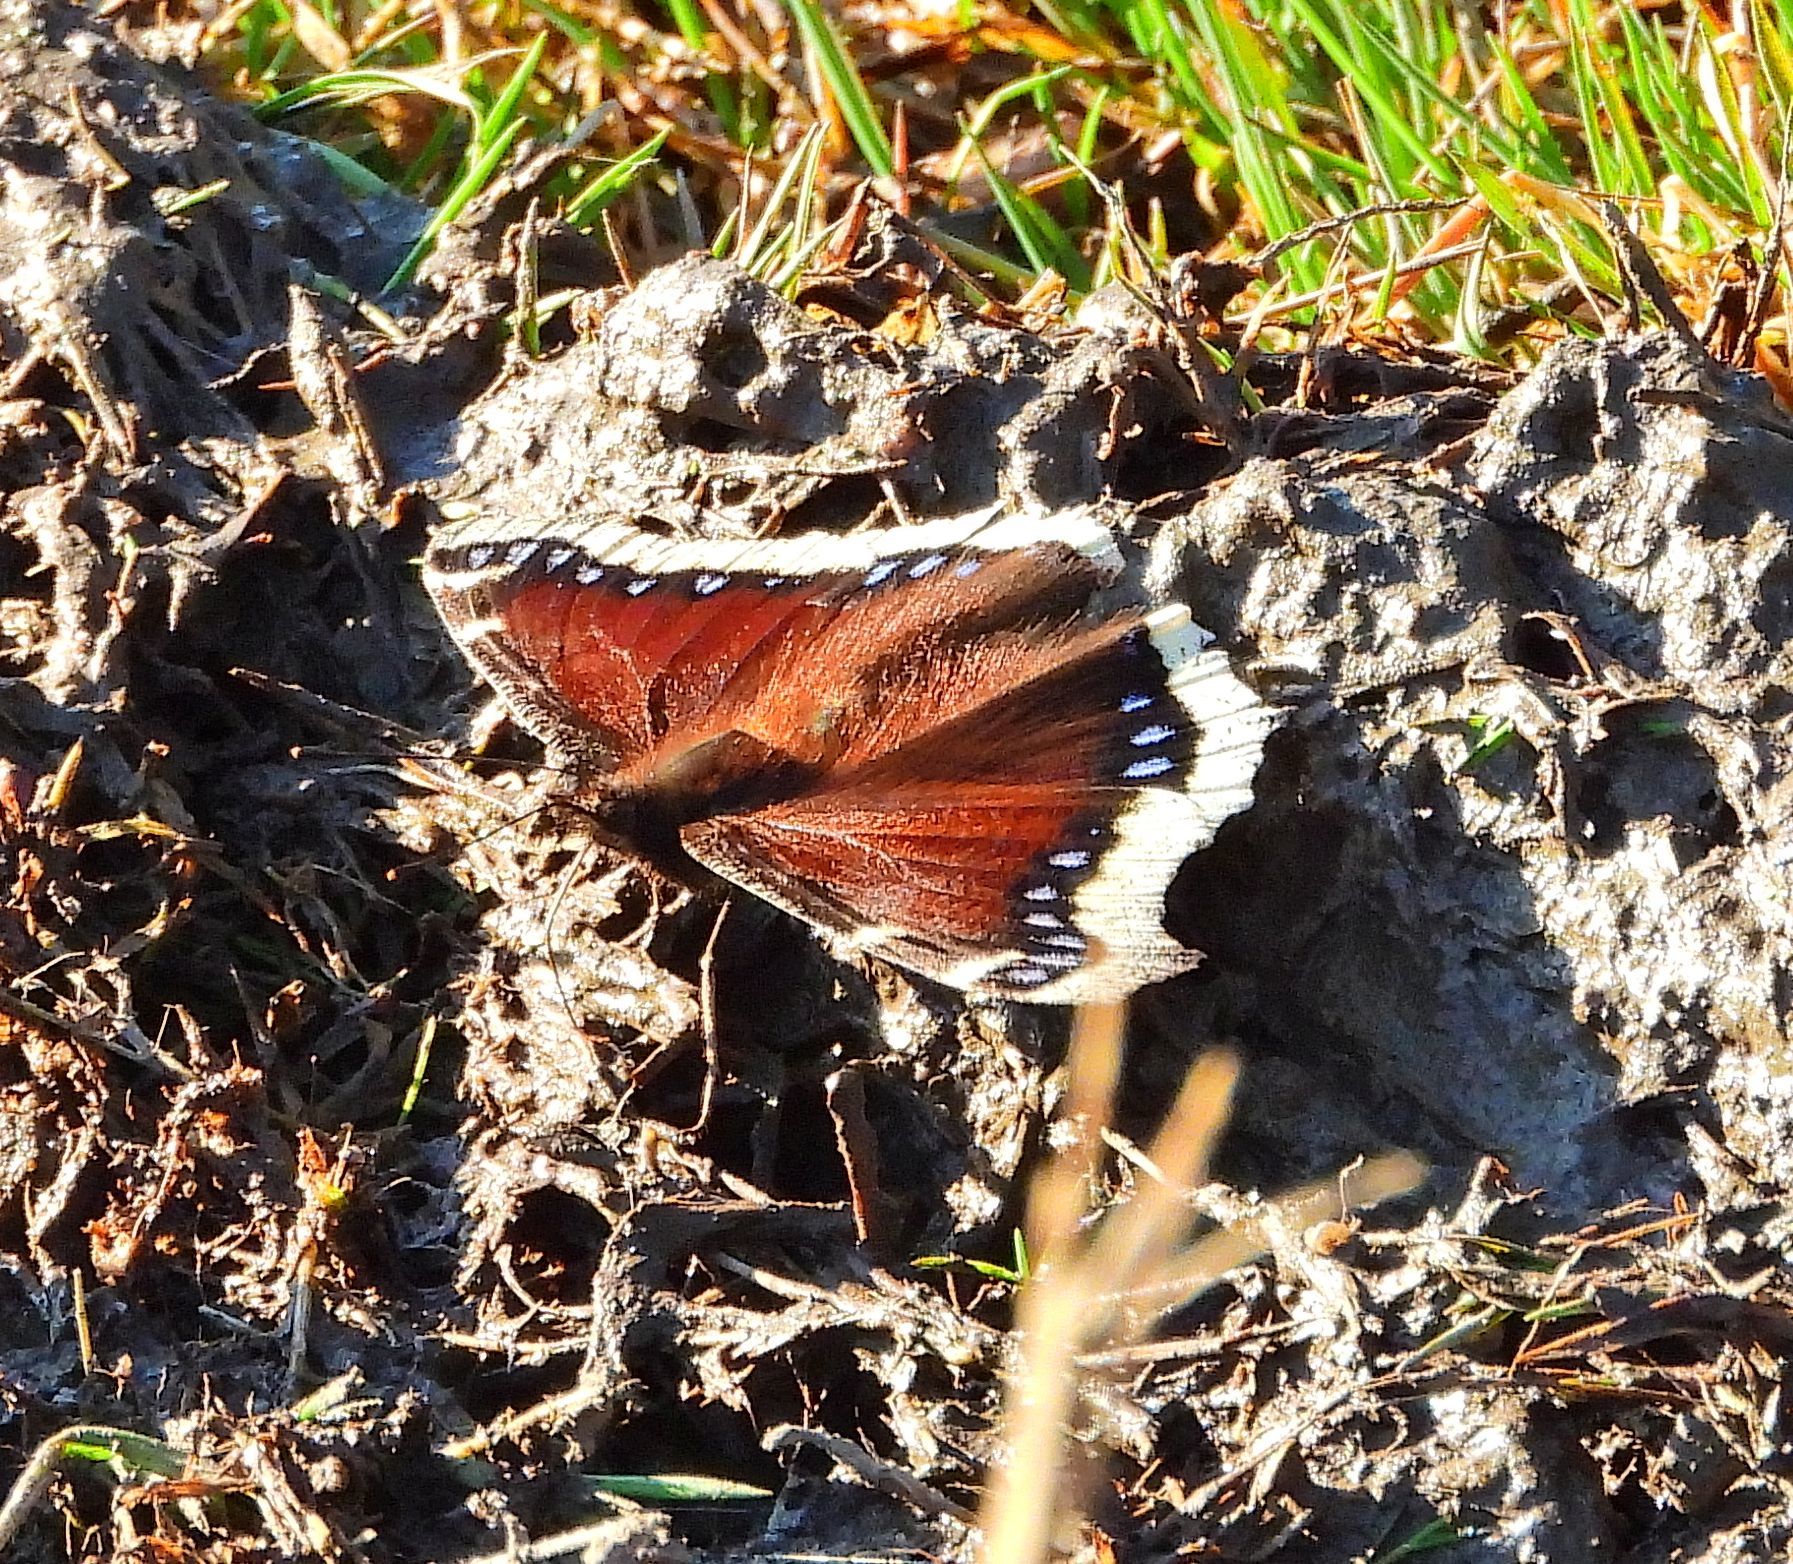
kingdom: Animalia
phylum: Arthropoda
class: Insecta
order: Lepidoptera
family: Nymphalidae
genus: Nymphalis
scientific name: Nymphalis antiopa
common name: Camberwell beauty
